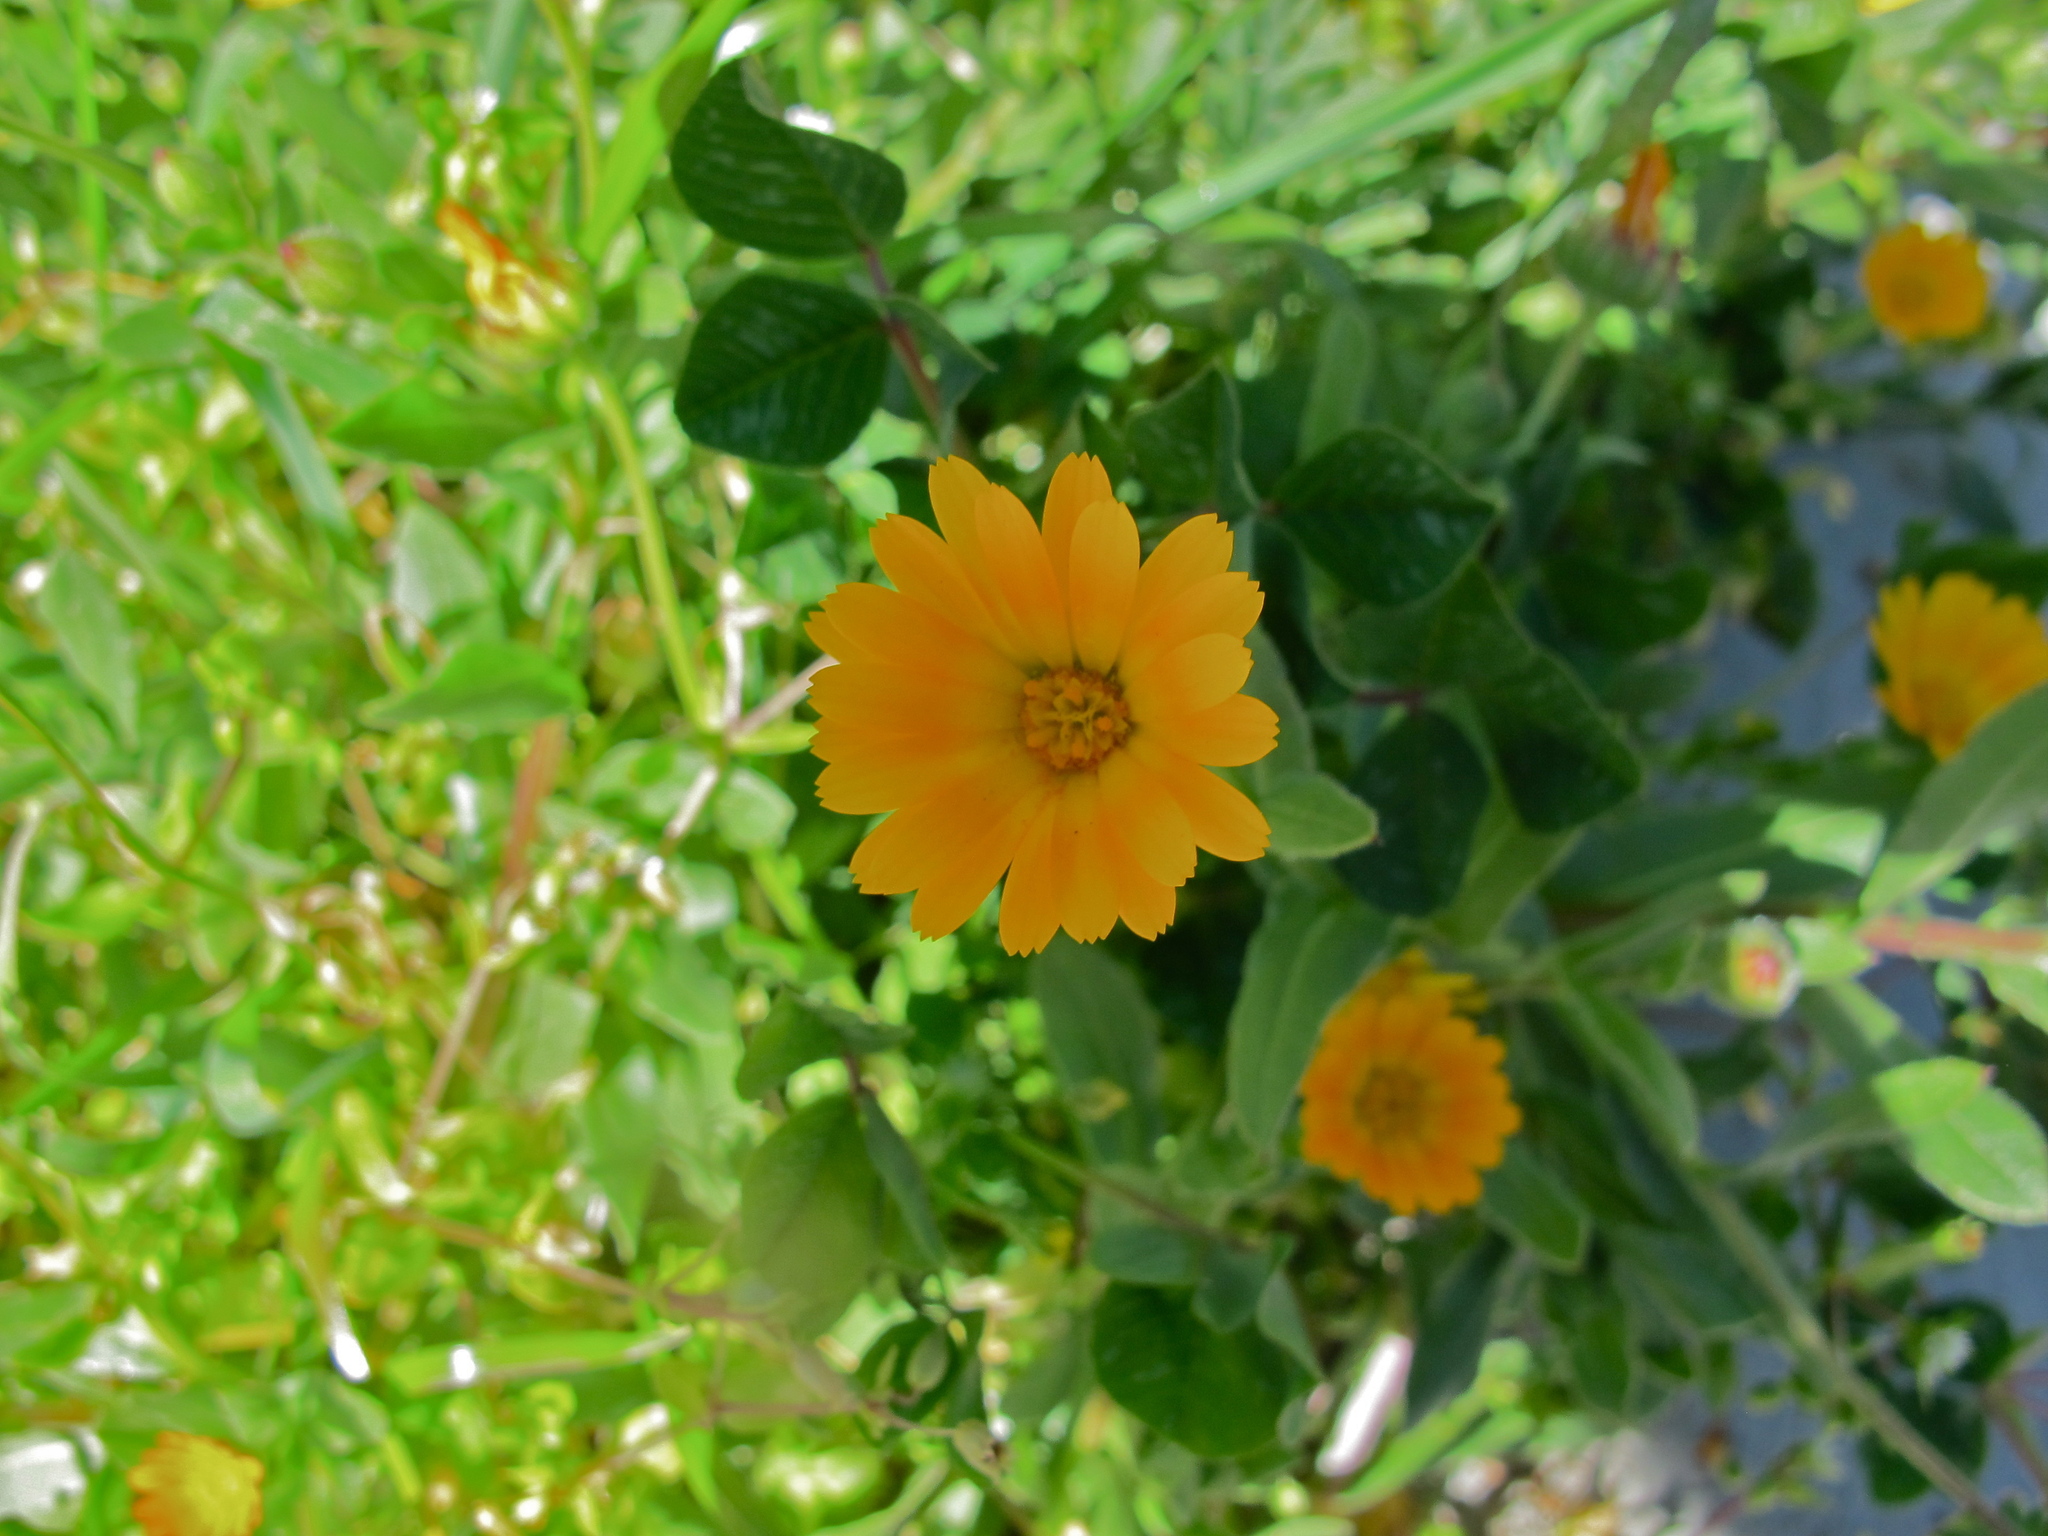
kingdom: Plantae
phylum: Tracheophyta
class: Magnoliopsida
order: Asterales
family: Asteraceae
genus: Calendula
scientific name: Calendula arvensis
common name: Field marigold
